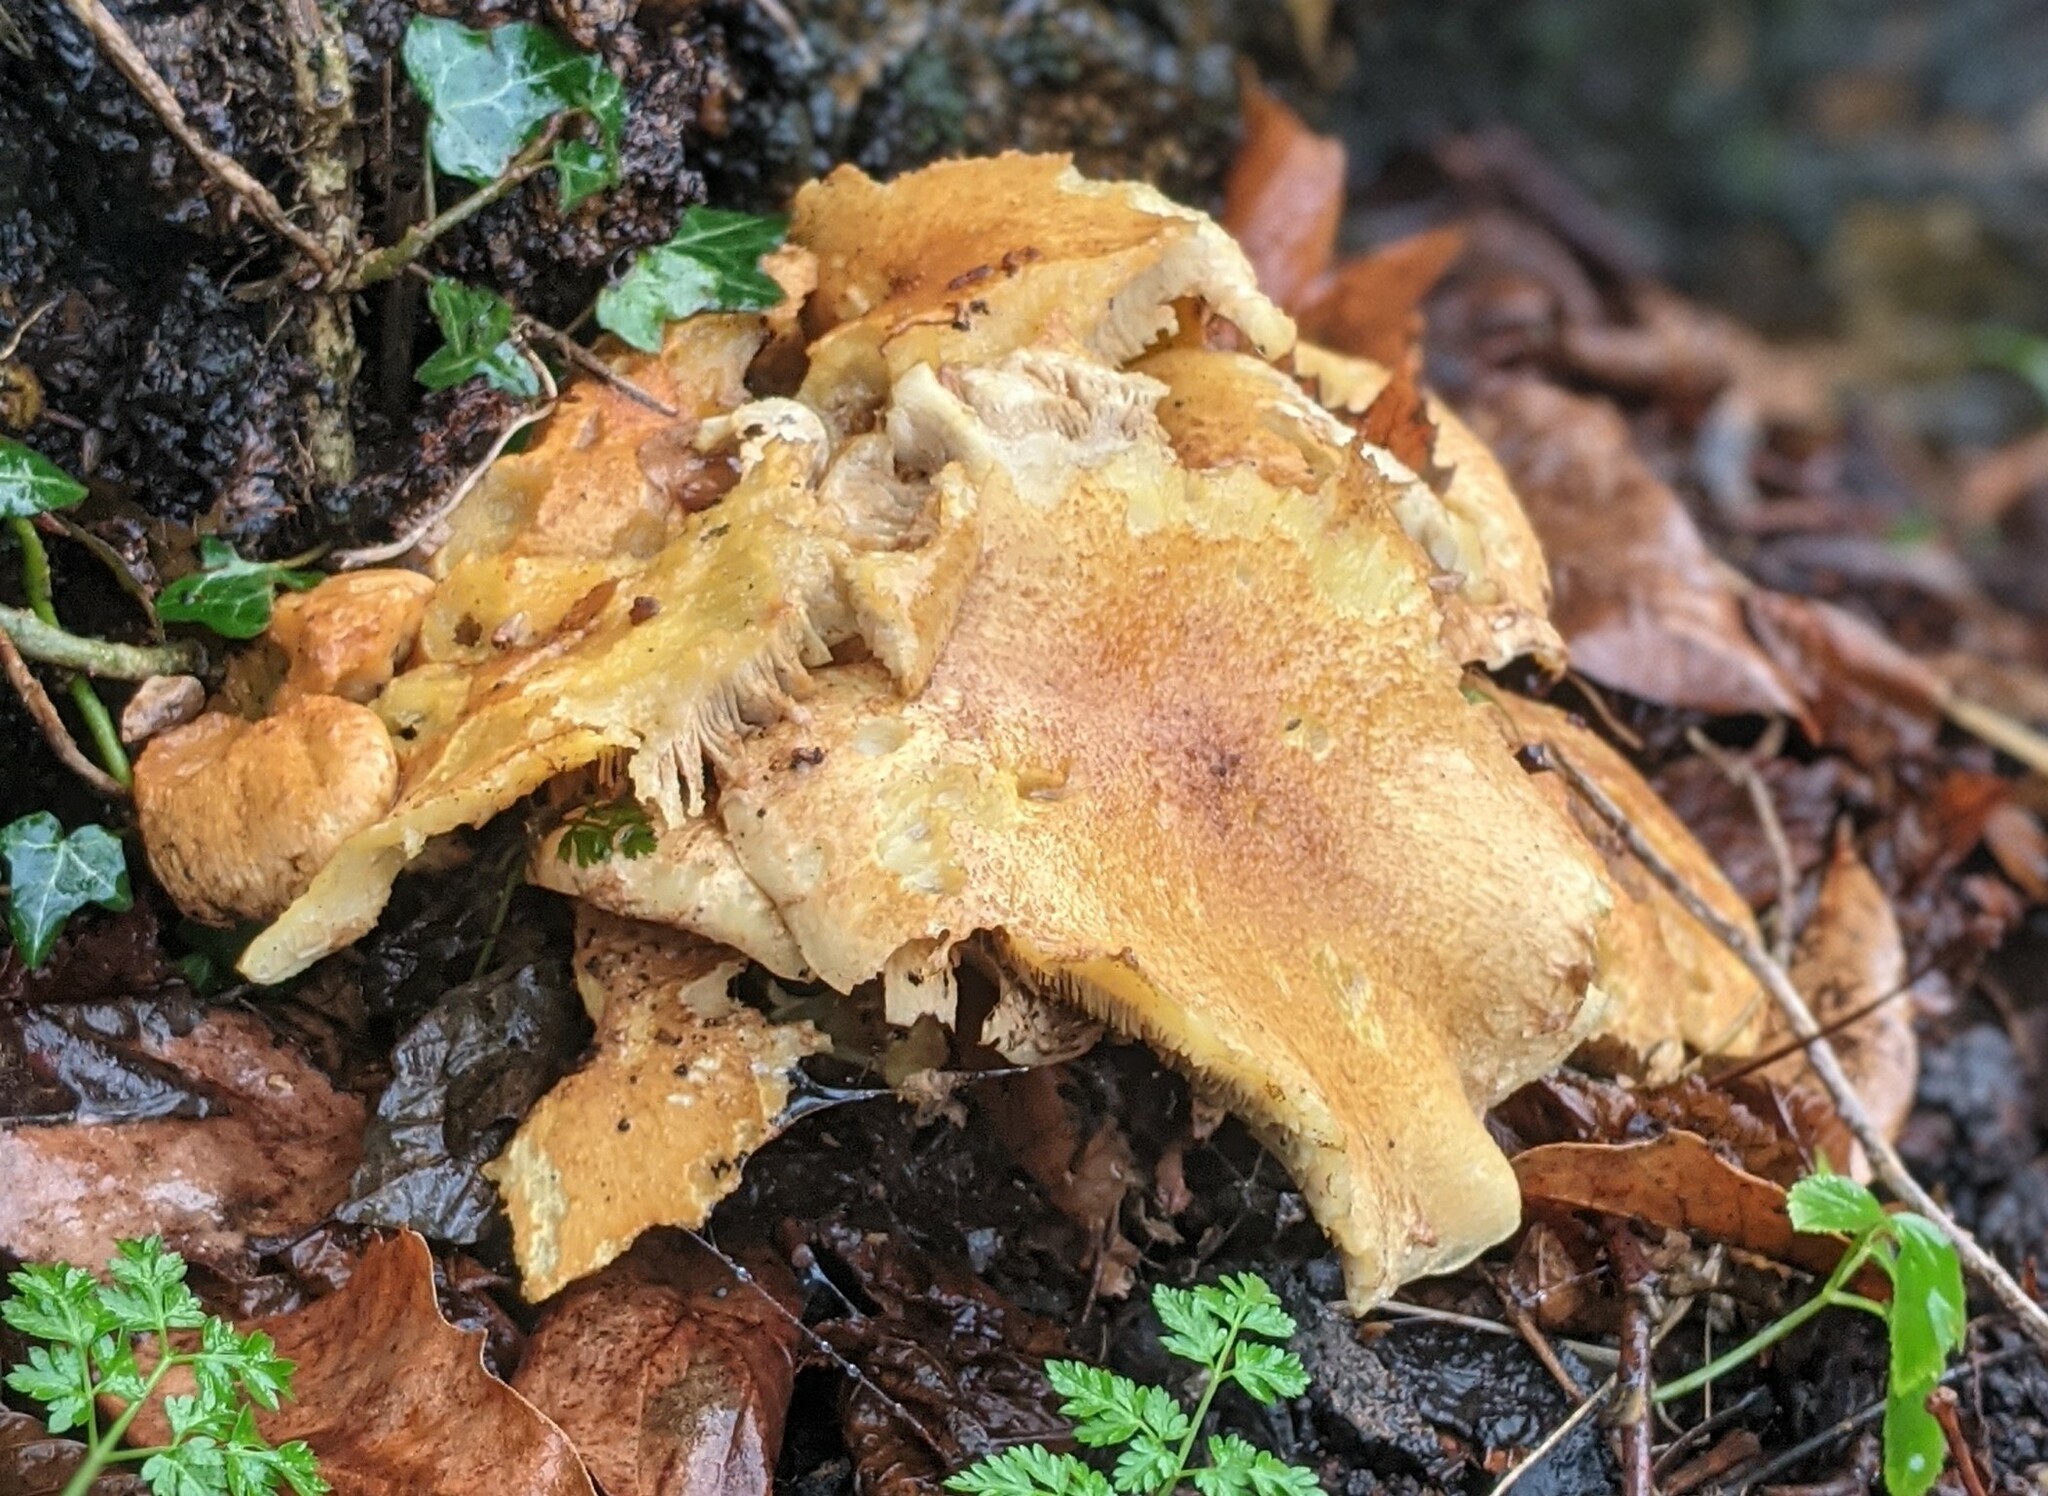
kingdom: Fungi
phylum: Basidiomycota
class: Agaricomycetes
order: Agaricales
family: Strophariaceae
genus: Pholiota
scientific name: Pholiota squarrosa
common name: Shaggy pholiota
